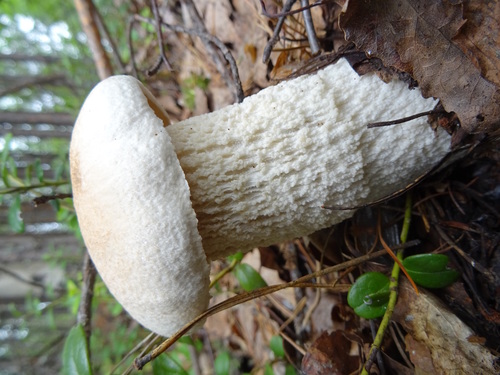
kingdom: Fungi
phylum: Basidiomycota
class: Agaricomycetes
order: Boletales
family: Boletaceae
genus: Leccinum
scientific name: Leccinum versipelle
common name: Orange birch bolete
